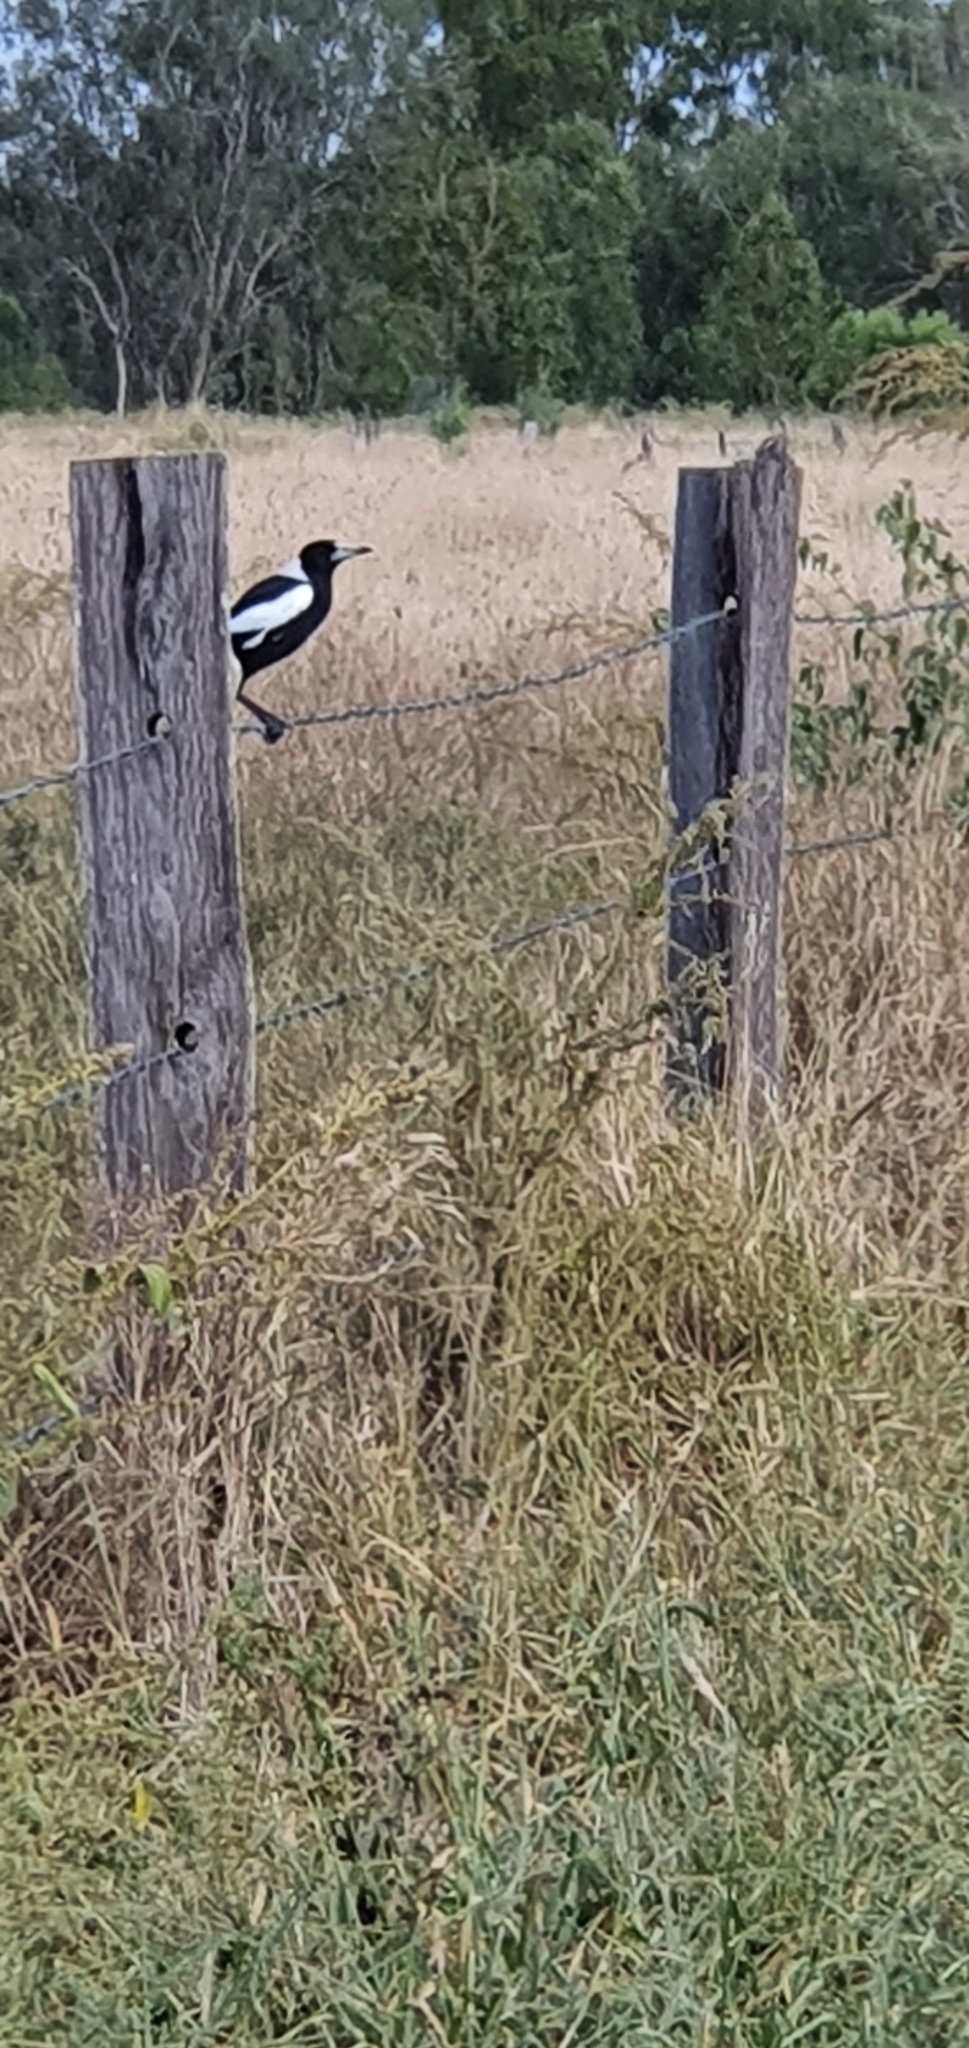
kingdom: Animalia
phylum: Chordata
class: Aves
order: Passeriformes
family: Cracticidae
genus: Gymnorhina
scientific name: Gymnorhina tibicen
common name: Australian magpie
